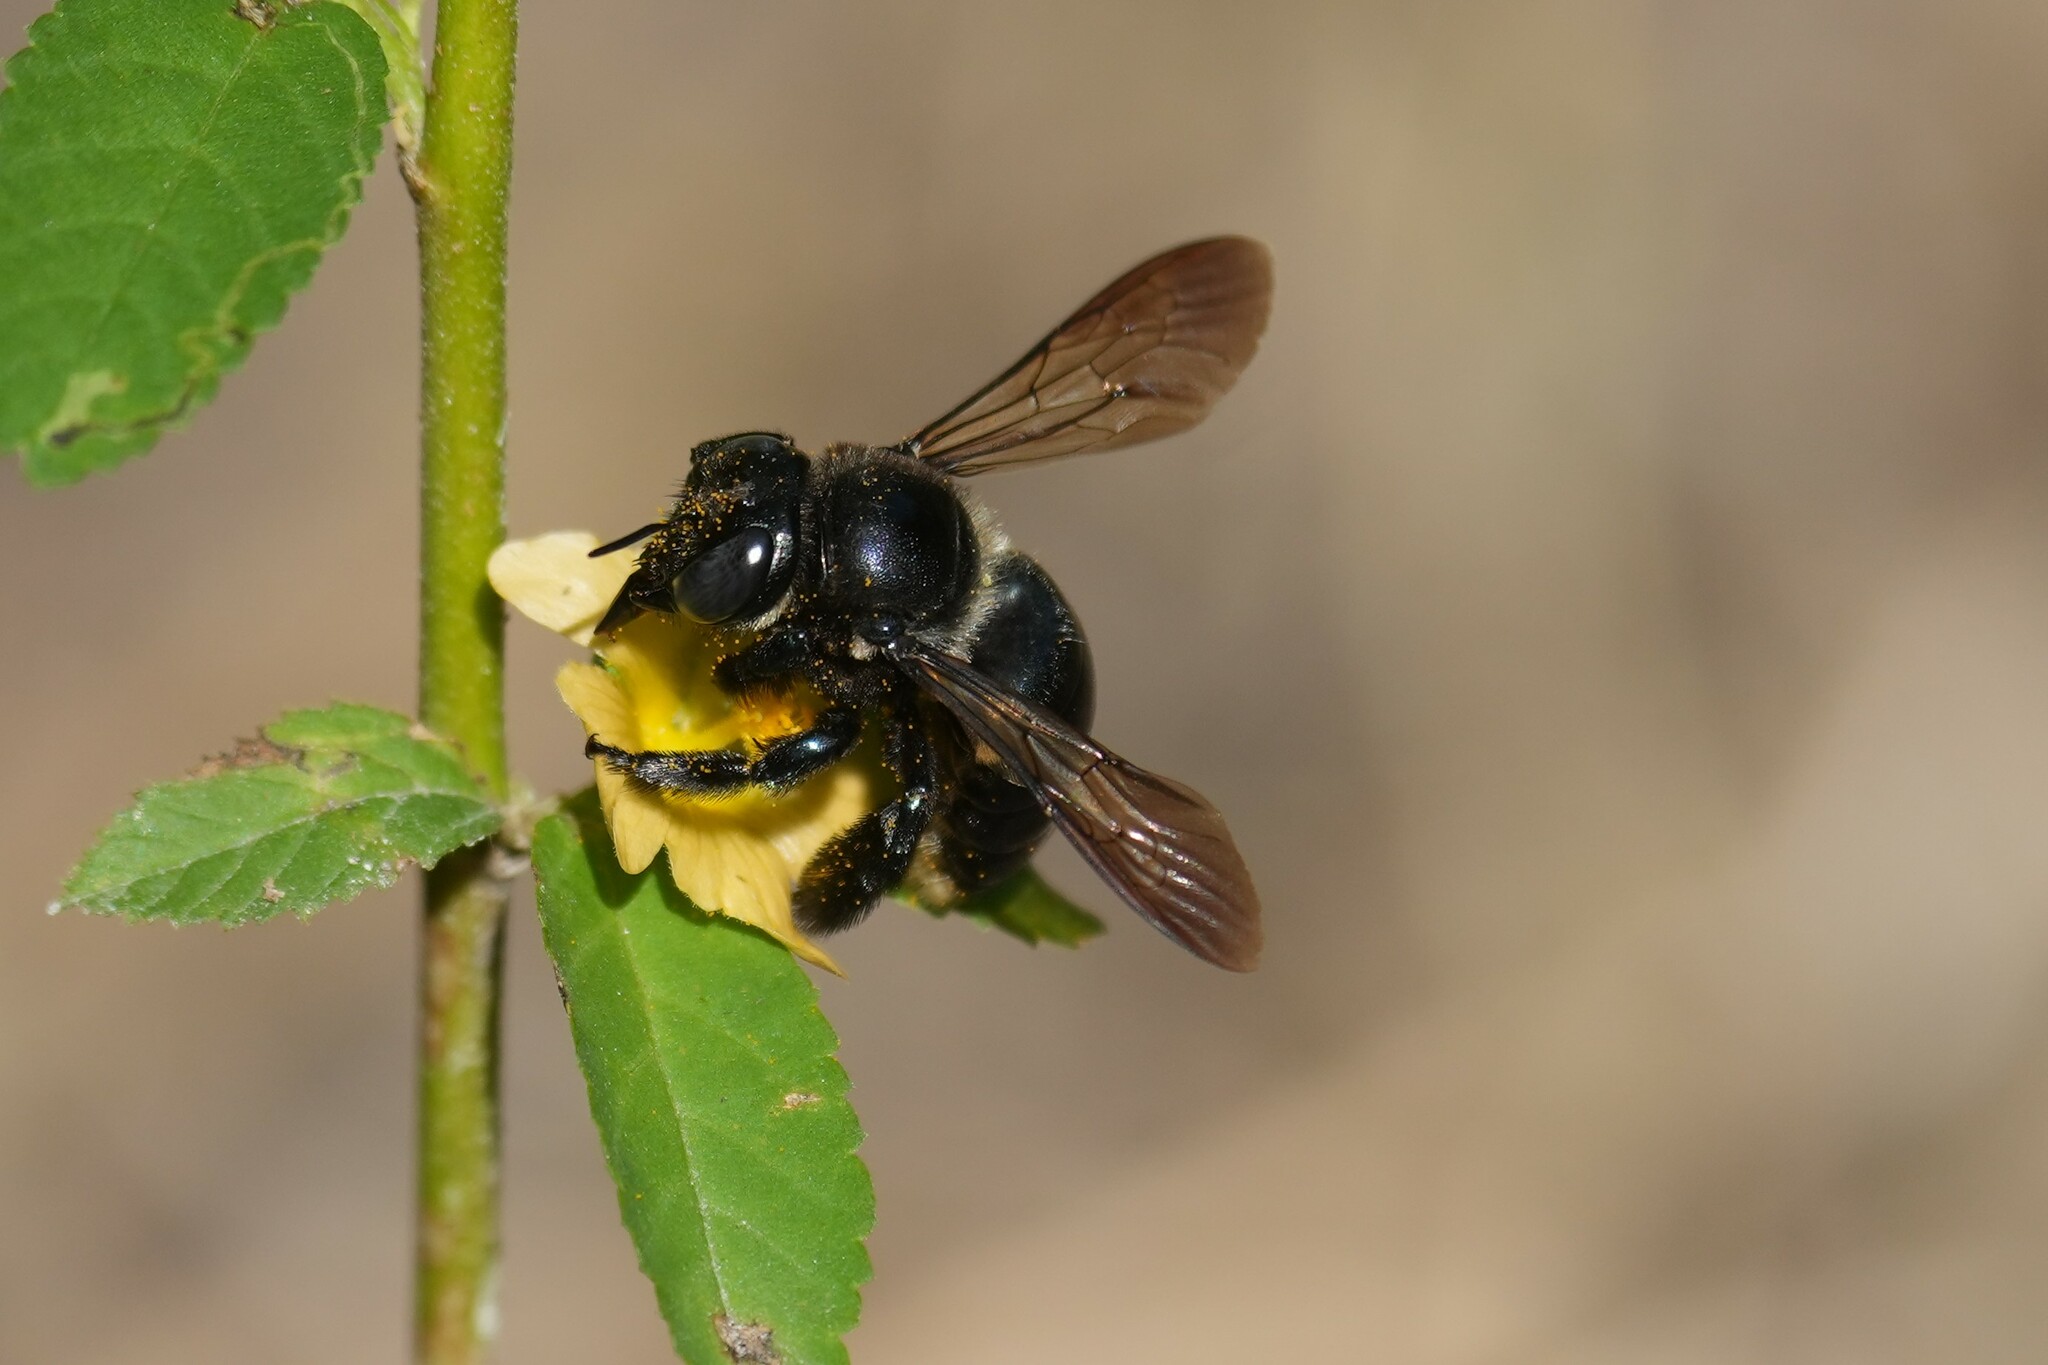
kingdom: Animalia
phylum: Arthropoda
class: Insecta
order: Hymenoptera
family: Apidae
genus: Xylocopa
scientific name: Xylocopa micans
